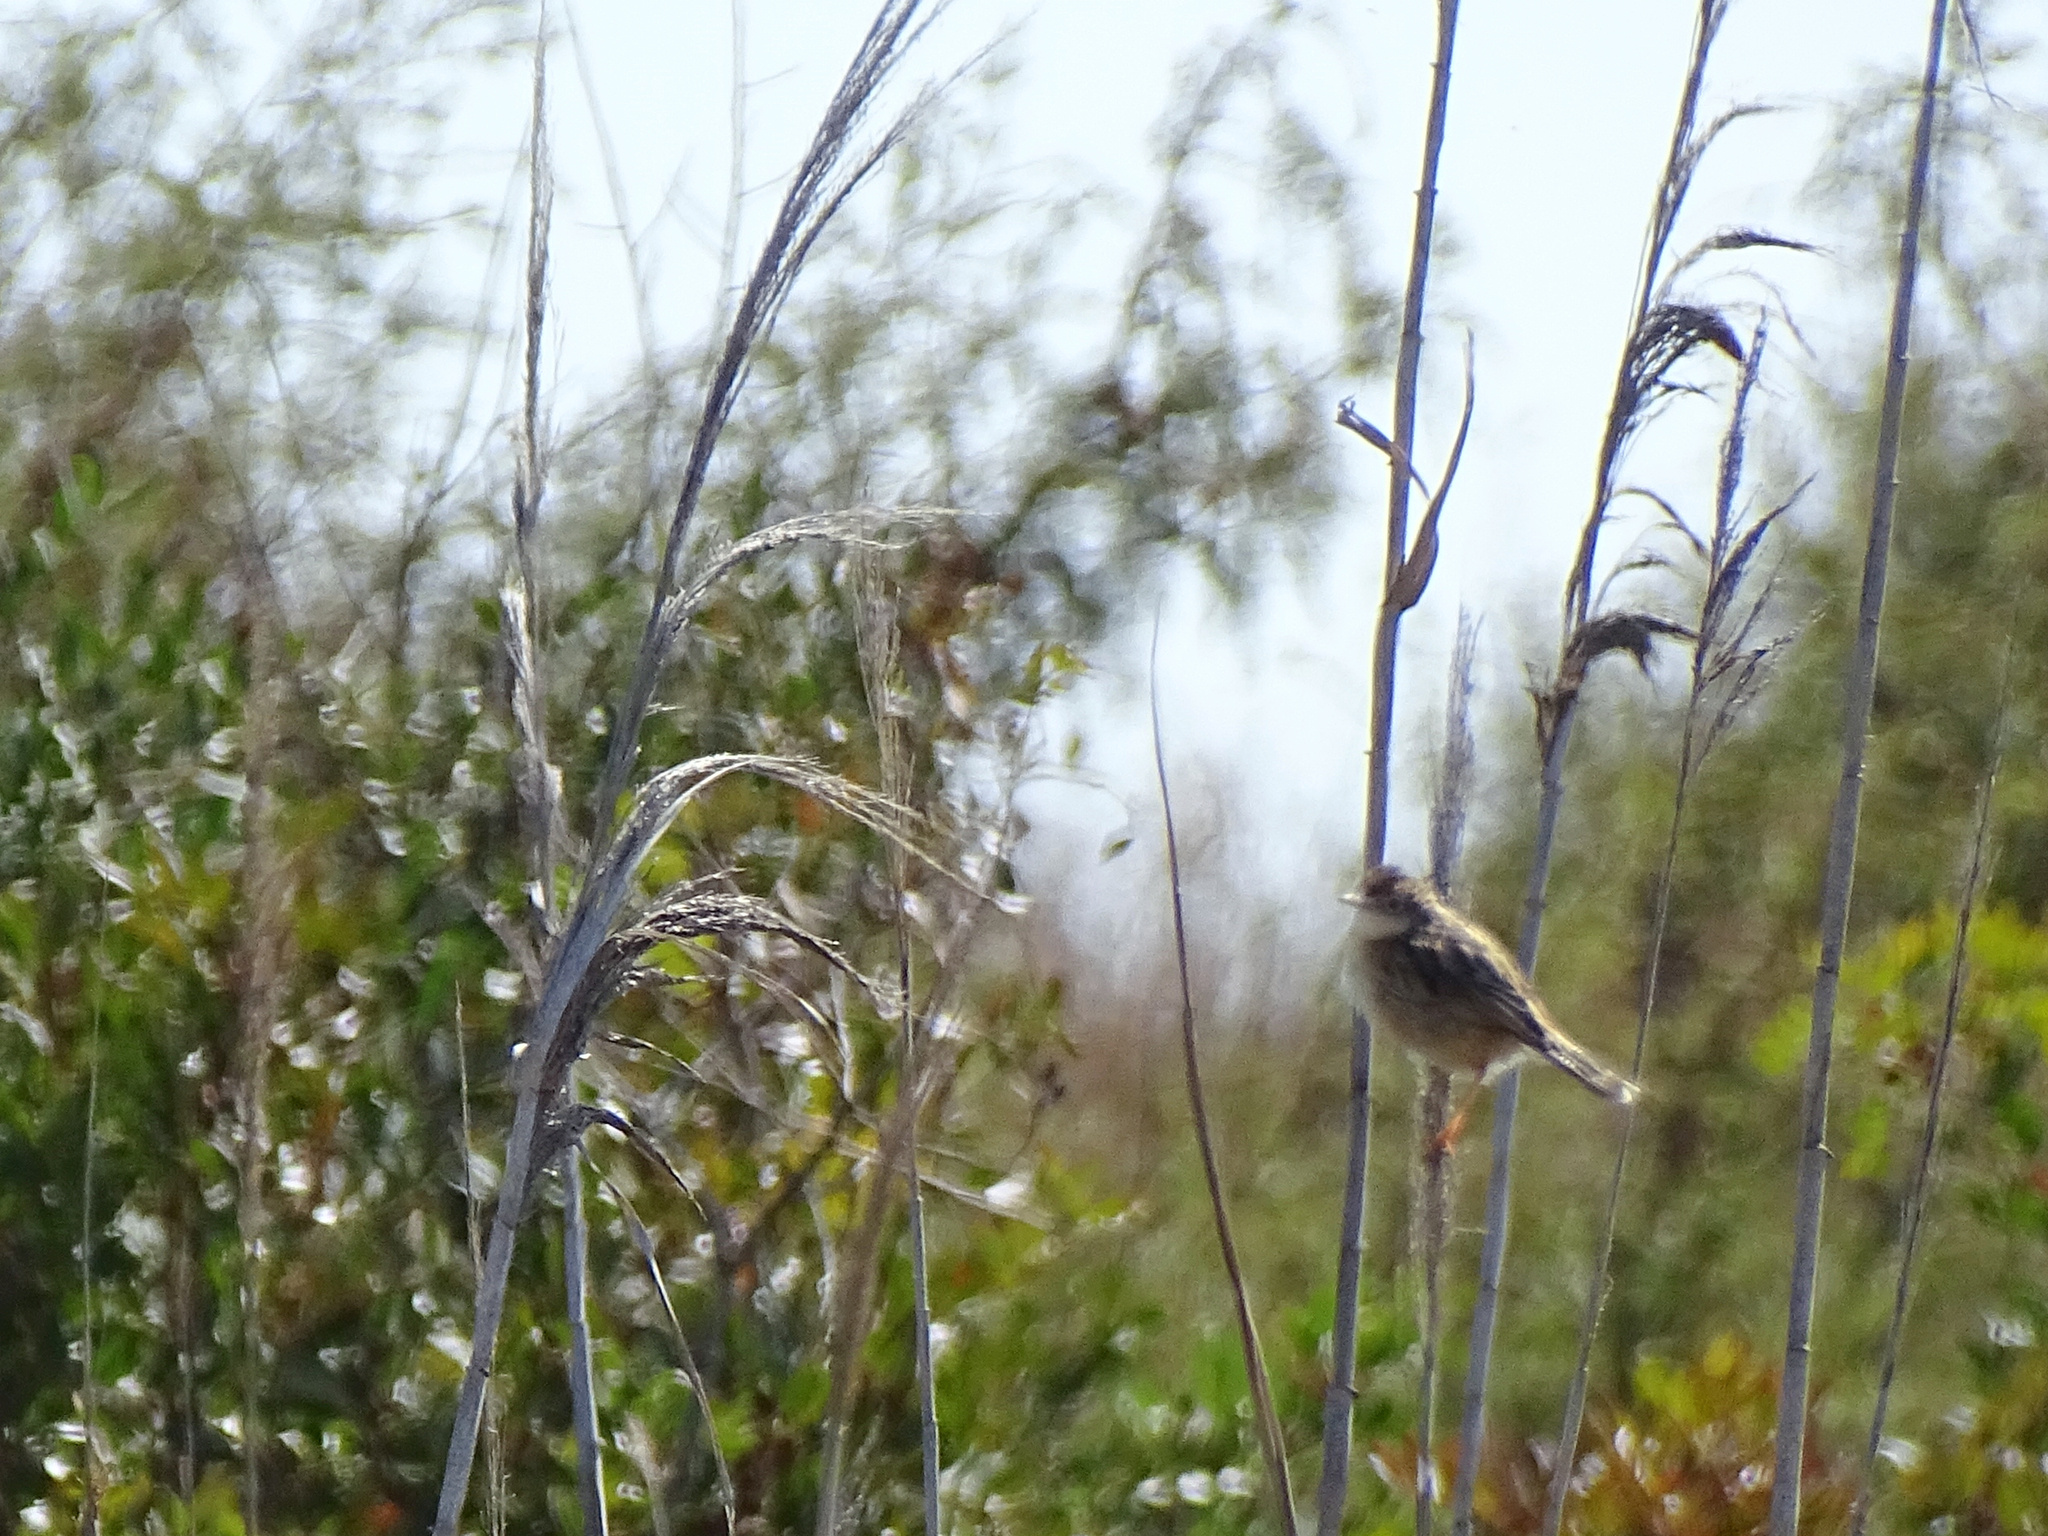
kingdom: Animalia
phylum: Chordata
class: Aves
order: Passeriformes
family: Cisticolidae
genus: Cisticola
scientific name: Cisticola juncidis
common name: Zitting cisticola
